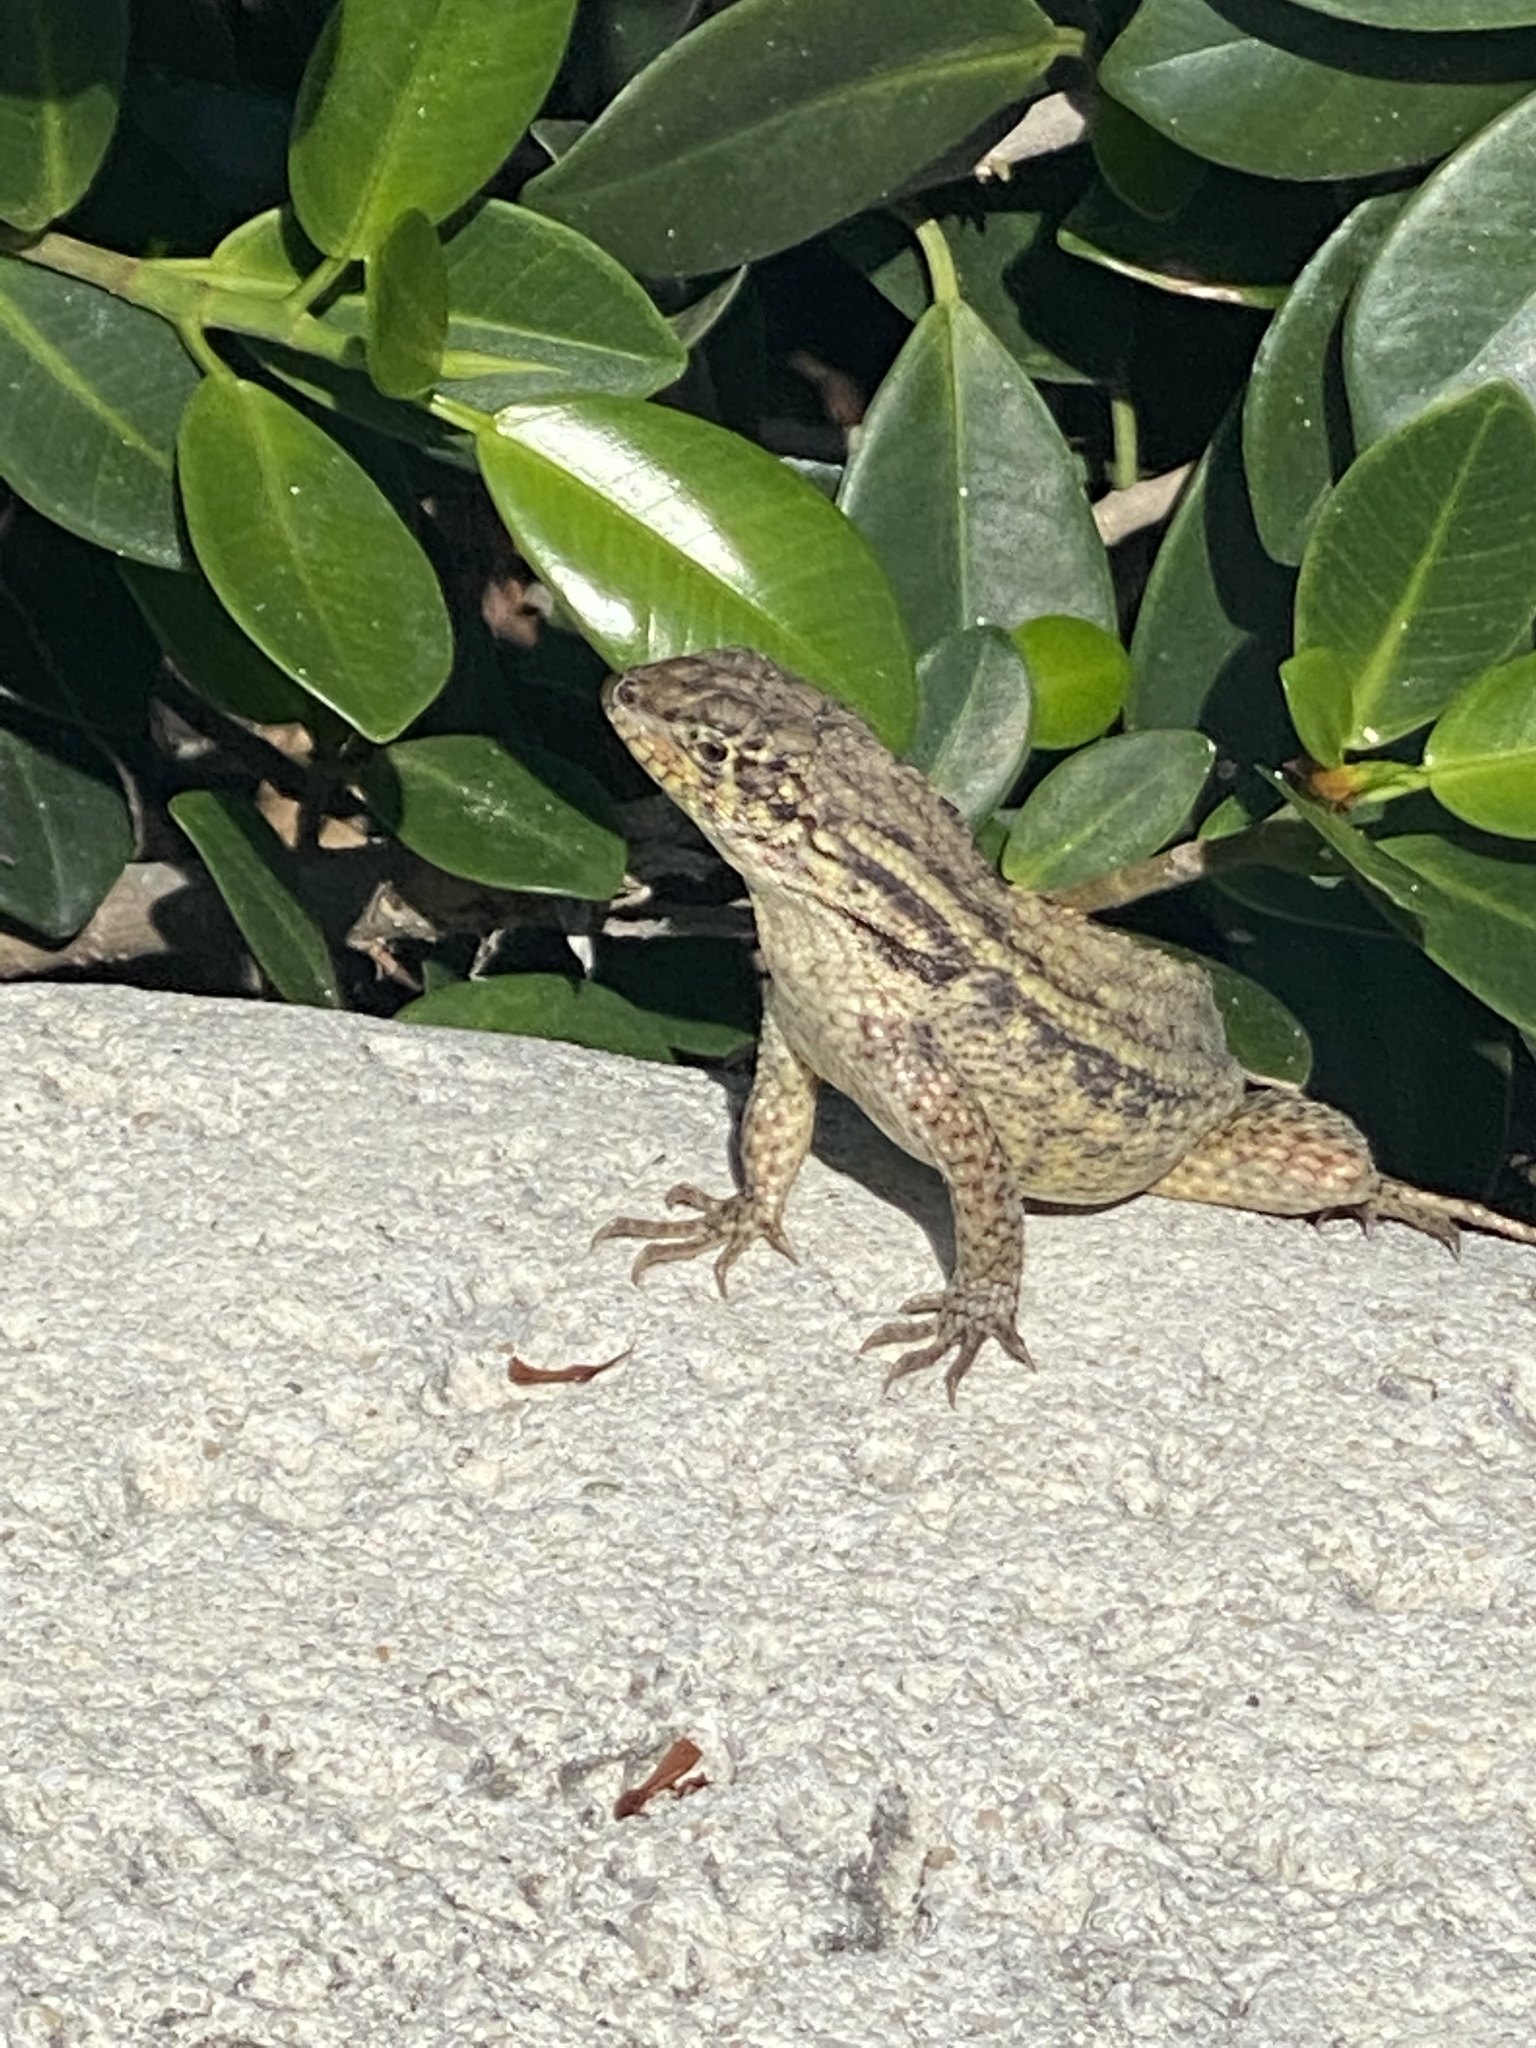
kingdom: Animalia
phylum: Chordata
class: Squamata
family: Leiocephalidae
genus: Leiocephalus
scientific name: Leiocephalus carinatus
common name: Northern curly-tailed lizard
